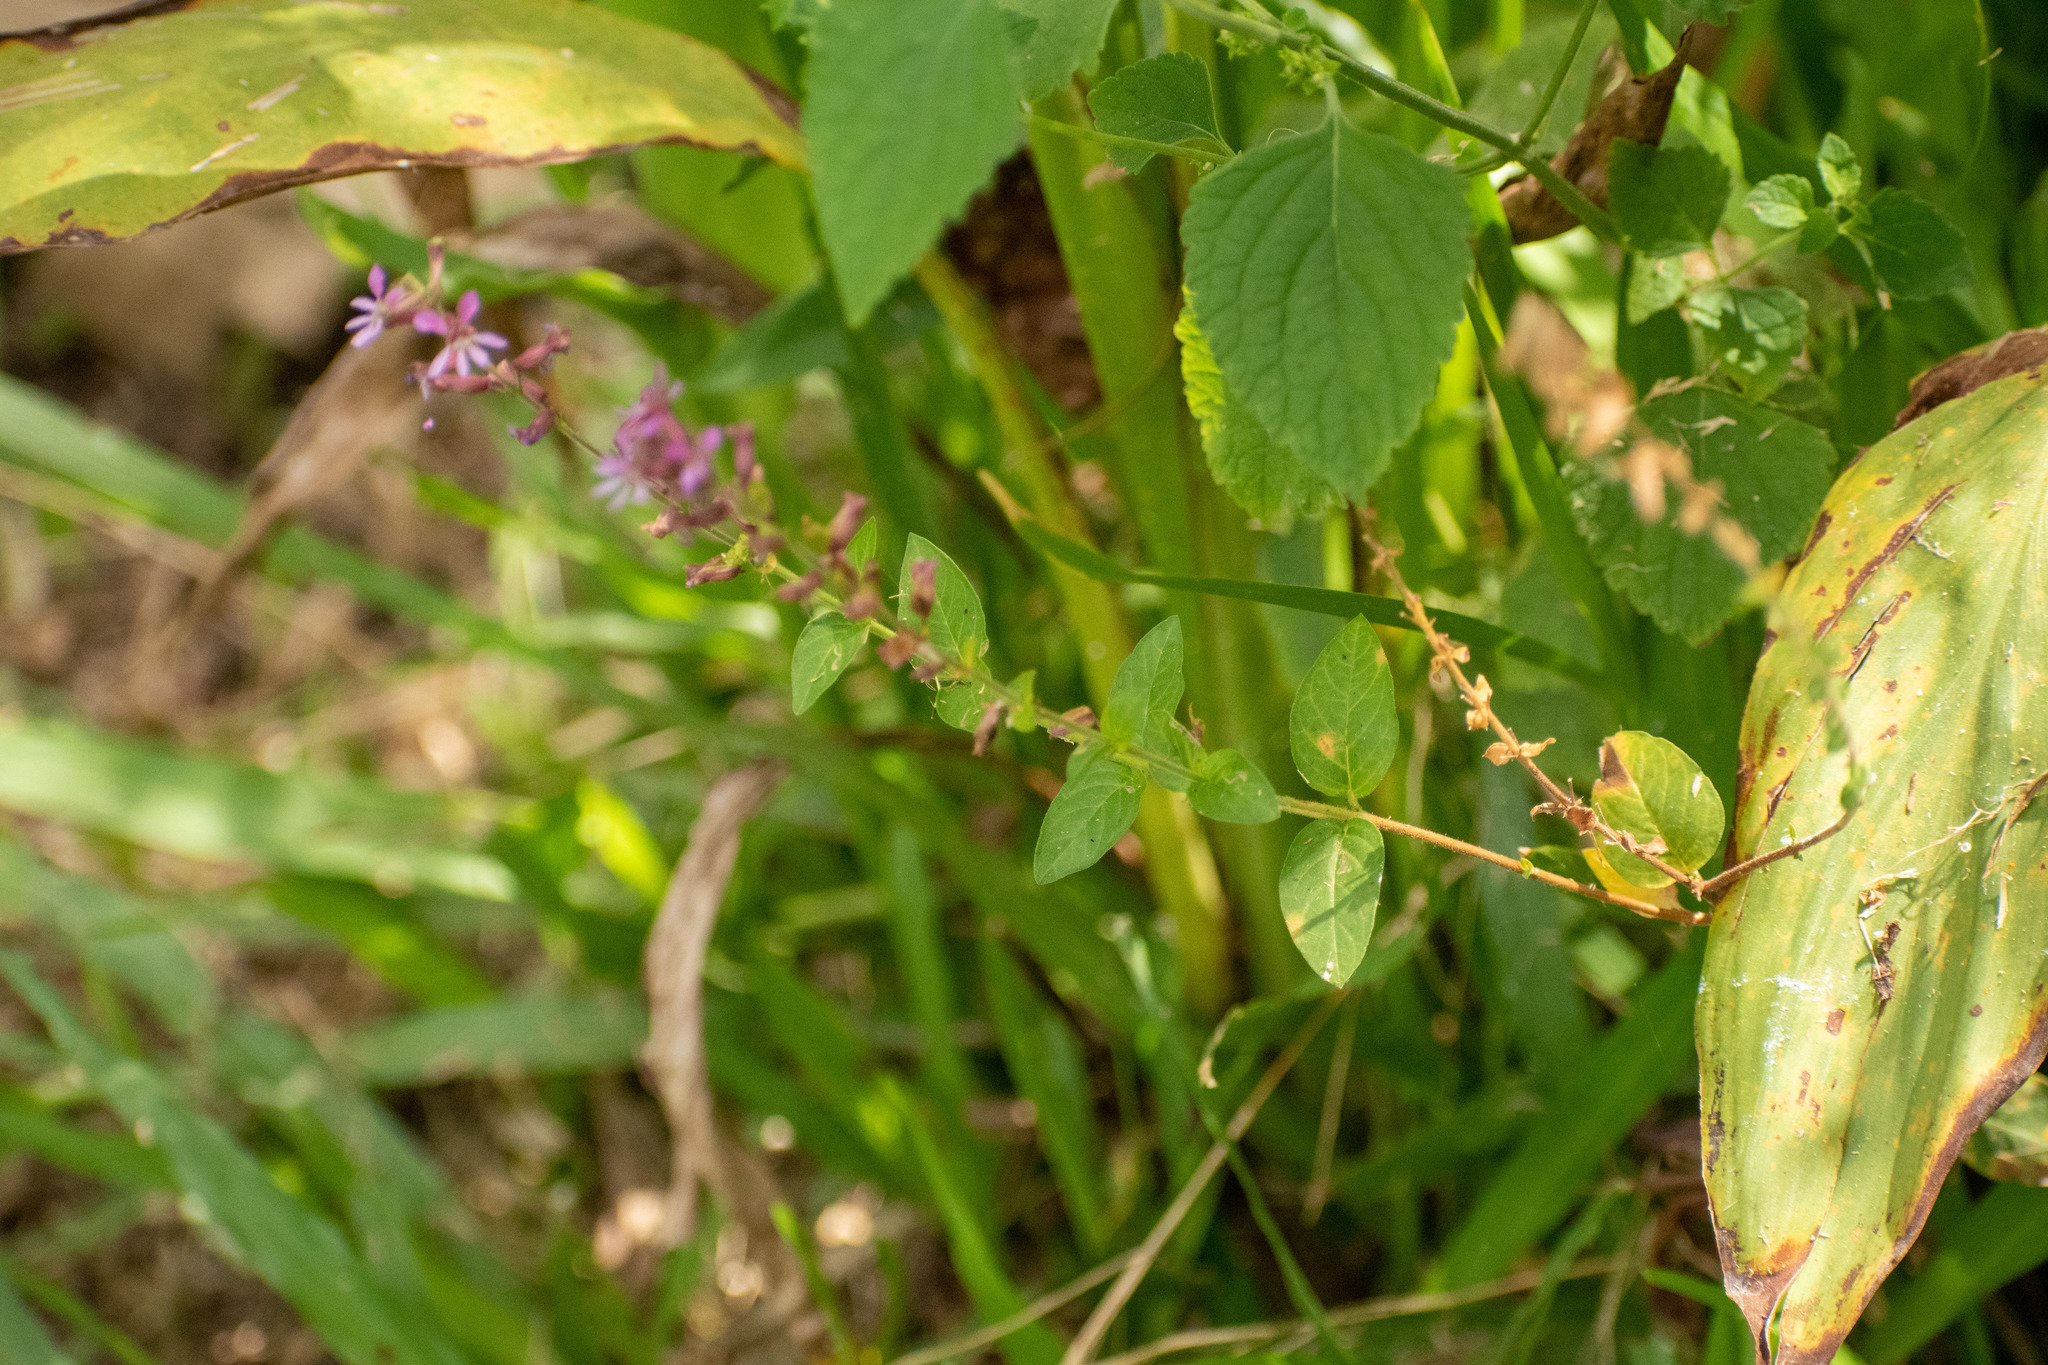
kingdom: Plantae
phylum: Tracheophyta
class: Magnoliopsida
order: Myrtales
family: Lythraceae
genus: Cuphea
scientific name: Cuphea racemosa
